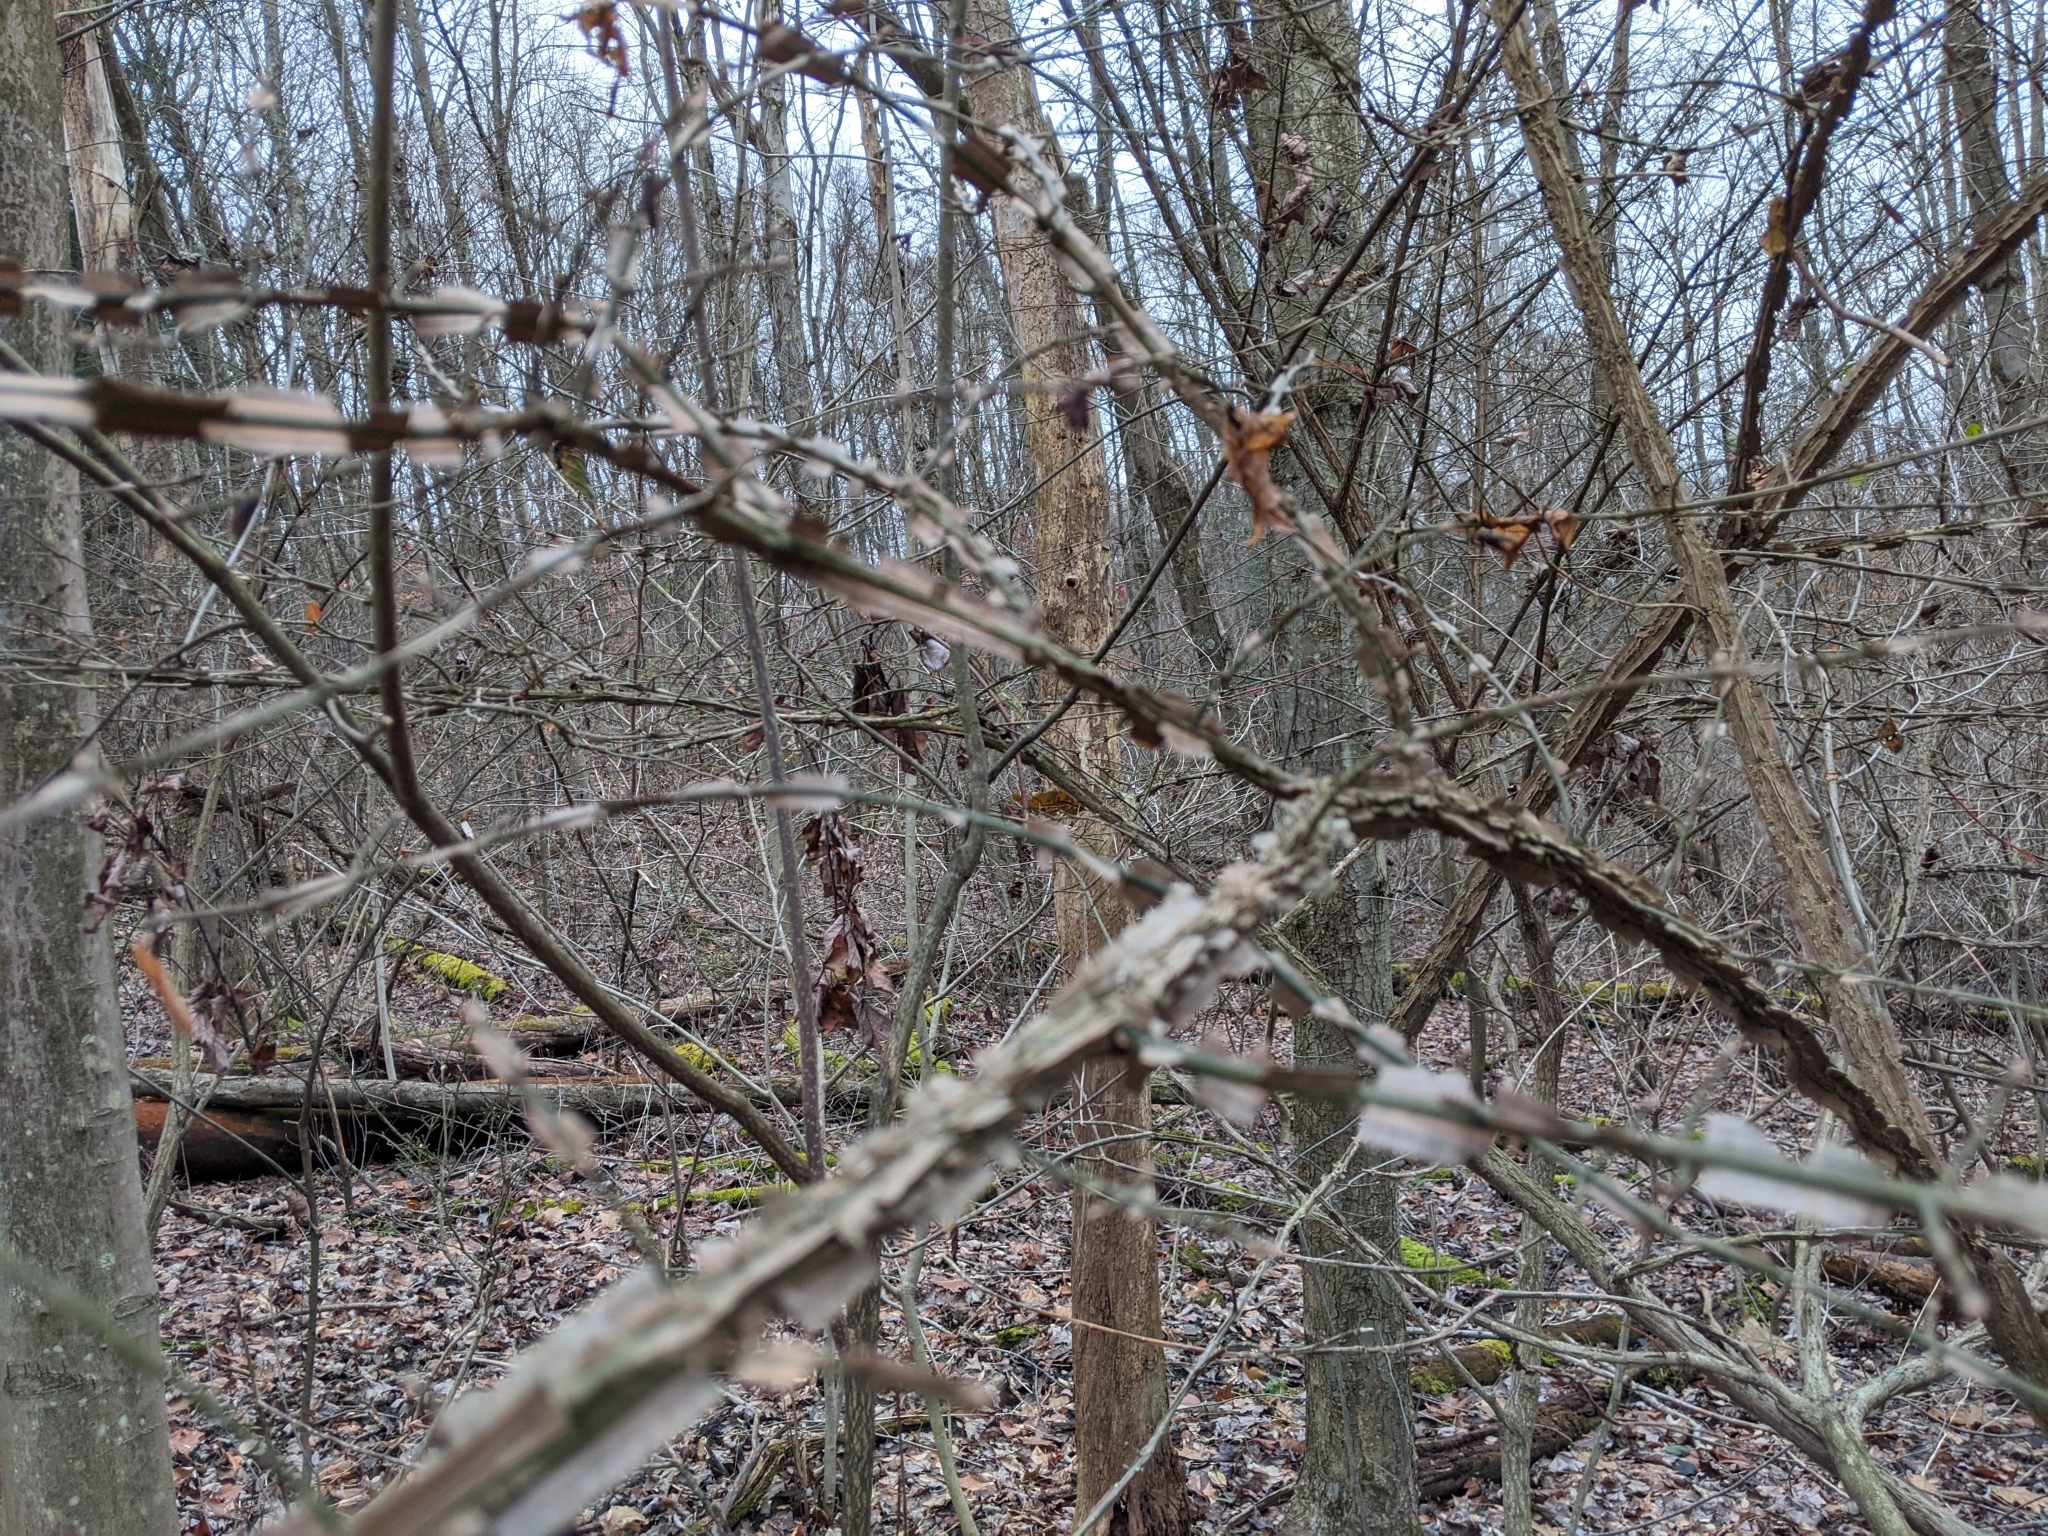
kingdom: Plantae
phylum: Tracheophyta
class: Magnoliopsida
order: Celastrales
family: Celastraceae
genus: Euonymus
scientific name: Euonymus alatus
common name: Winged euonymus
